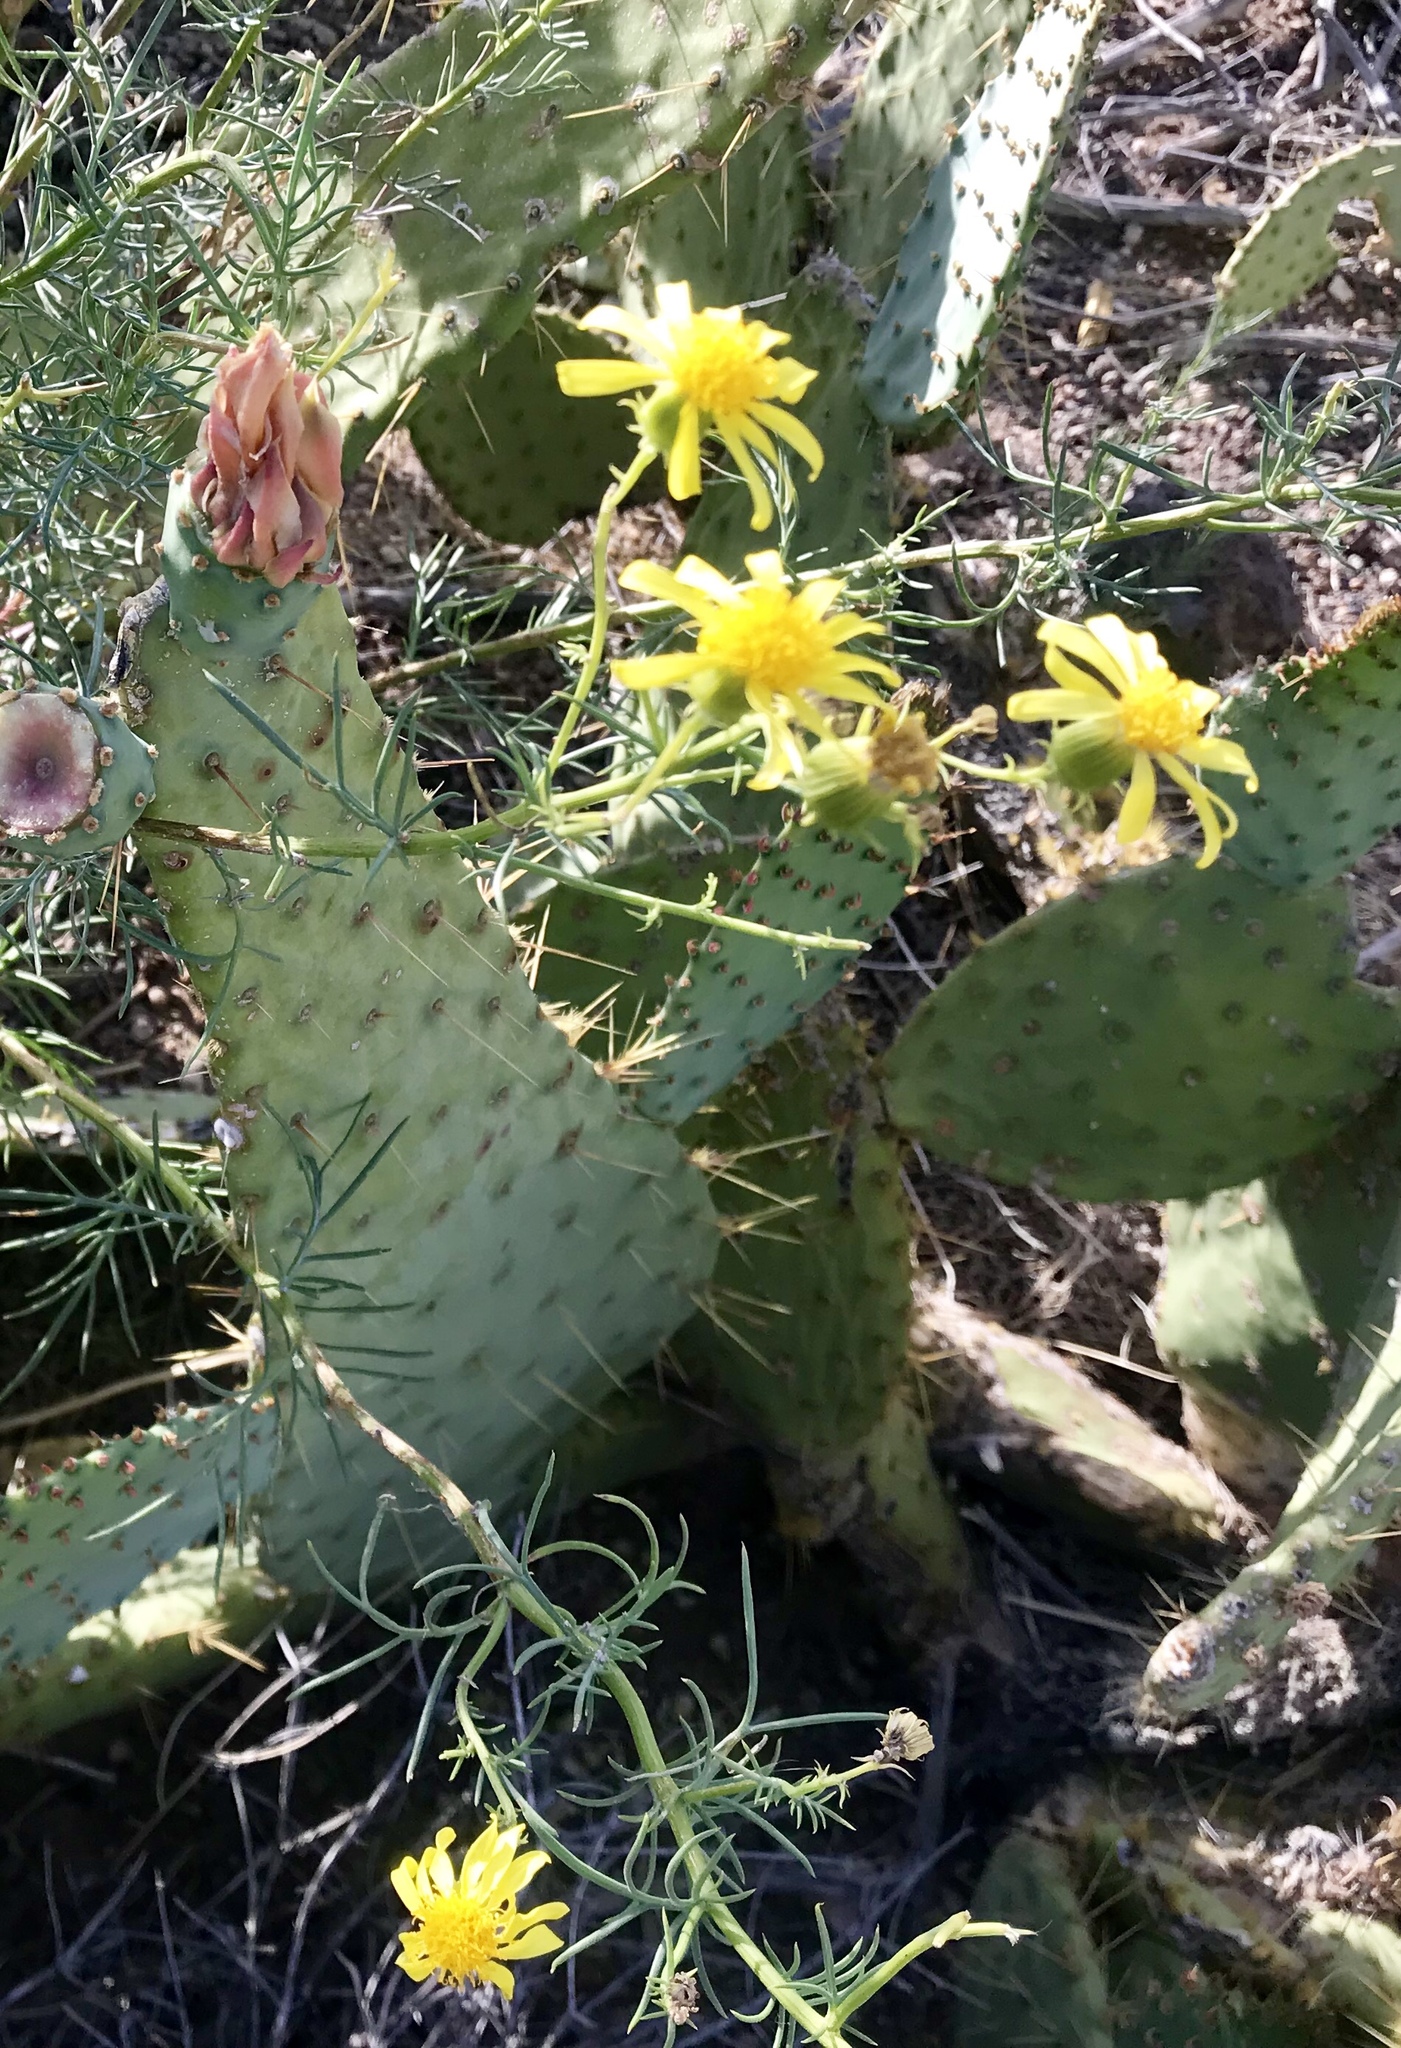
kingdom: Plantae
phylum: Tracheophyta
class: Magnoliopsida
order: Asterales
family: Asteraceae
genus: Senecio
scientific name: Senecio flaccidus
